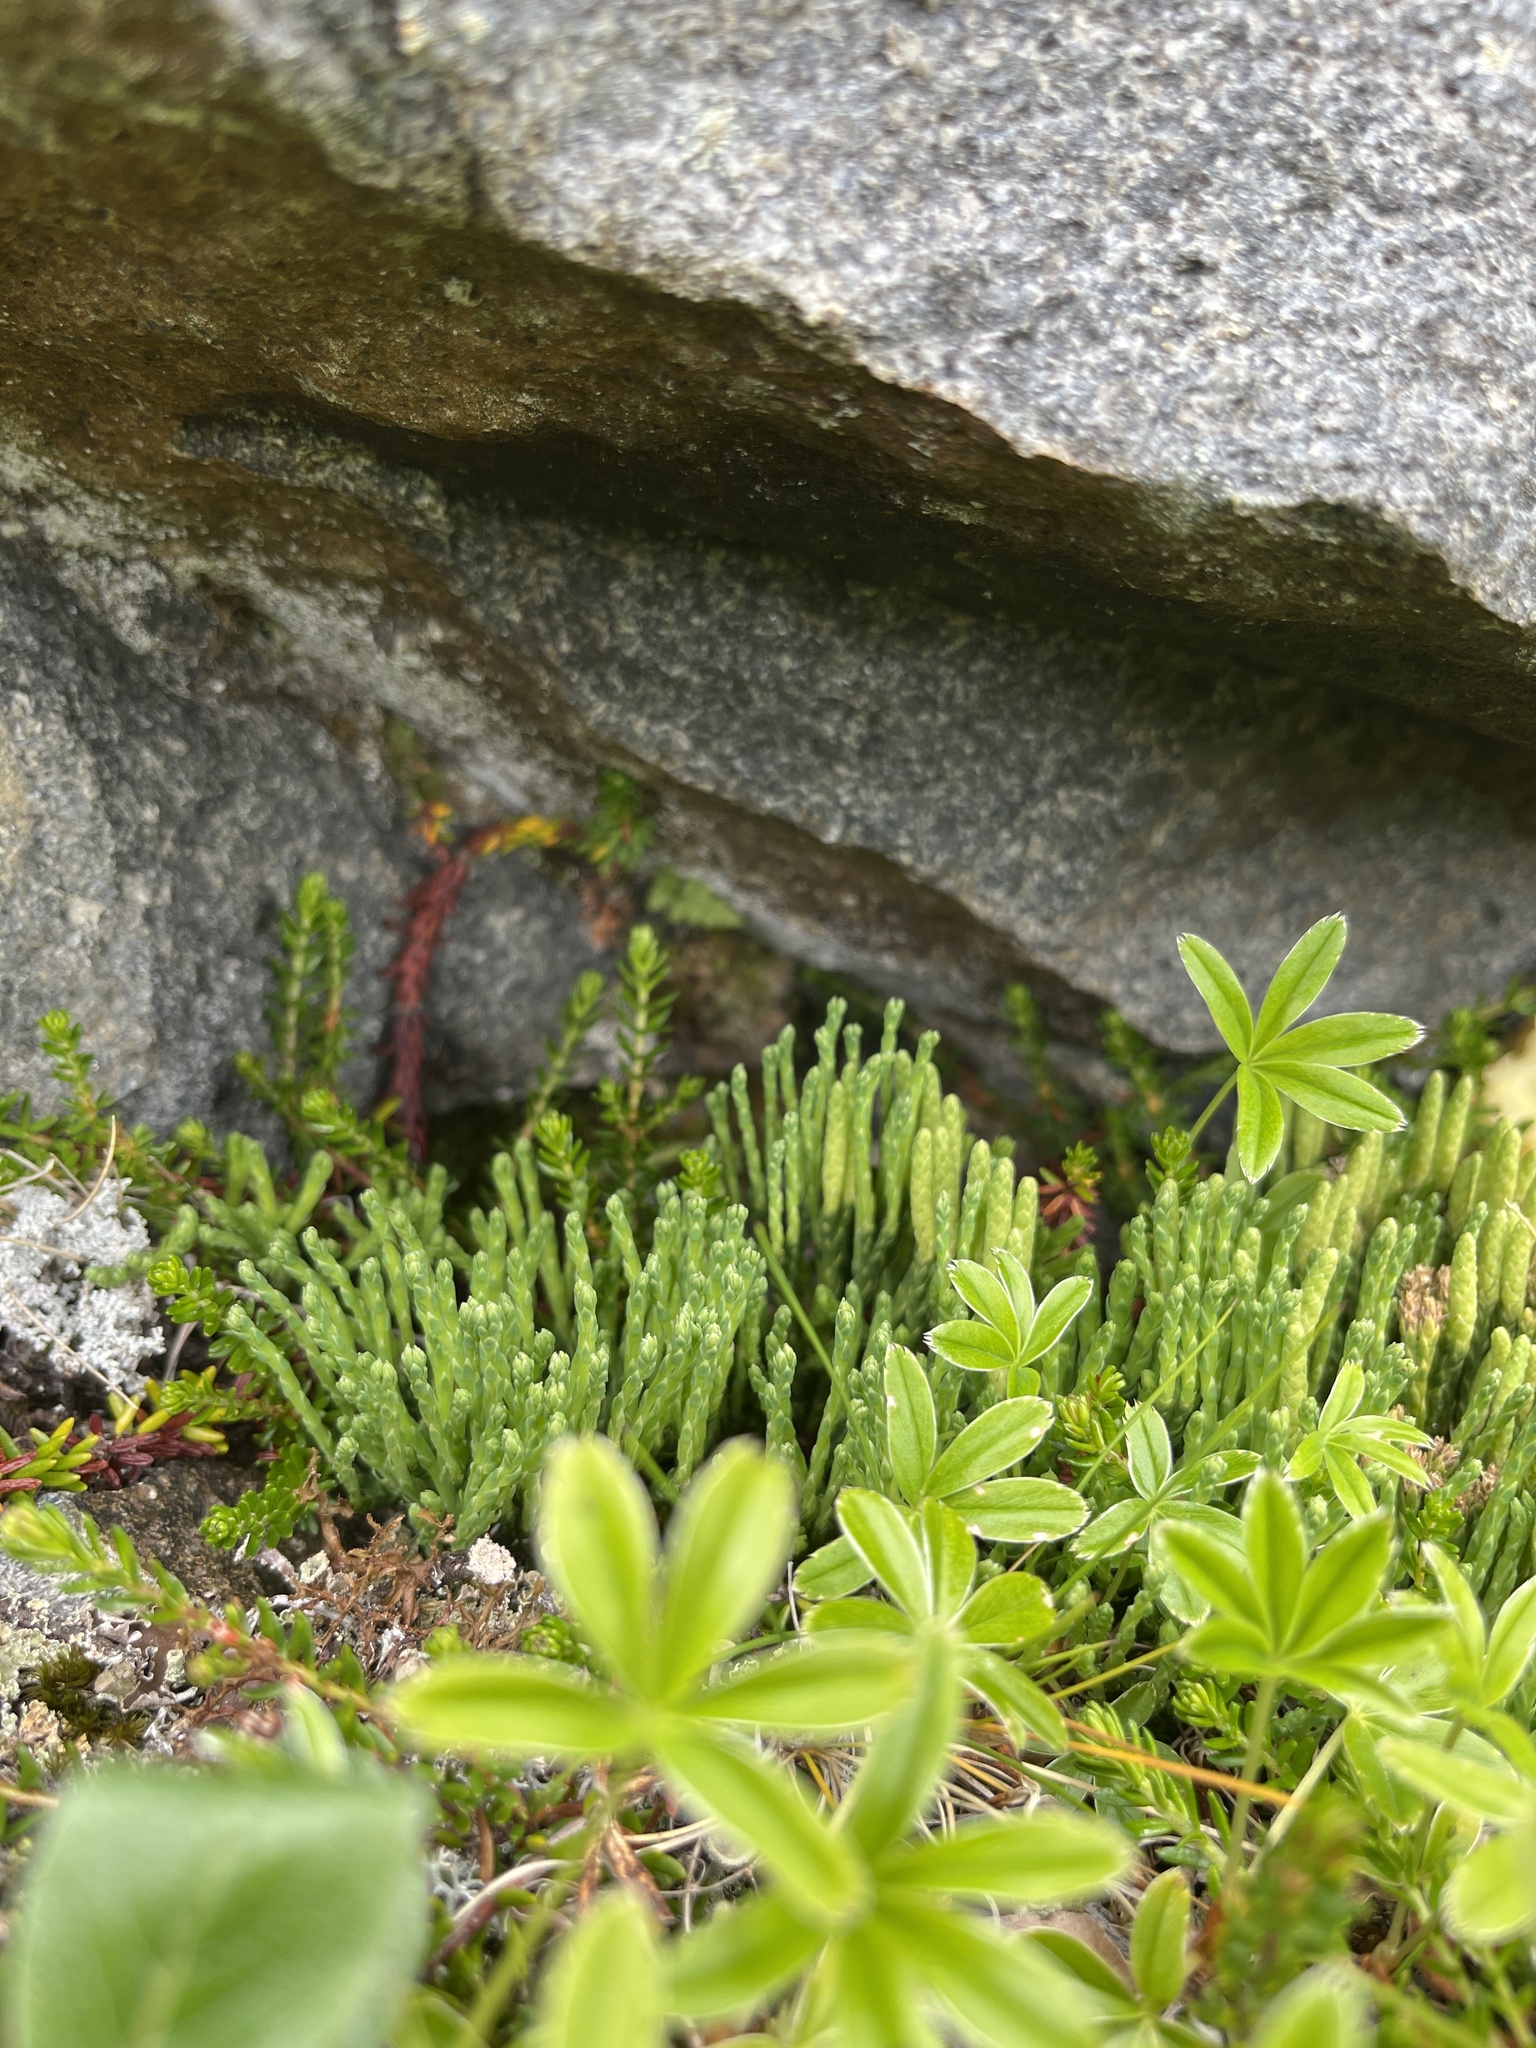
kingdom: Plantae
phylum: Tracheophyta
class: Lycopodiopsida
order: Lycopodiales
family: Lycopodiaceae
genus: Diphasiastrum
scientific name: Diphasiastrum alpinum
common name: Alpine clubmoss
